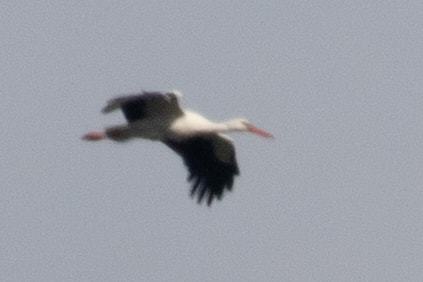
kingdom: Animalia
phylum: Chordata
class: Aves
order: Ciconiiformes
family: Ciconiidae
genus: Ciconia
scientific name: Ciconia ciconia
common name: White stork
